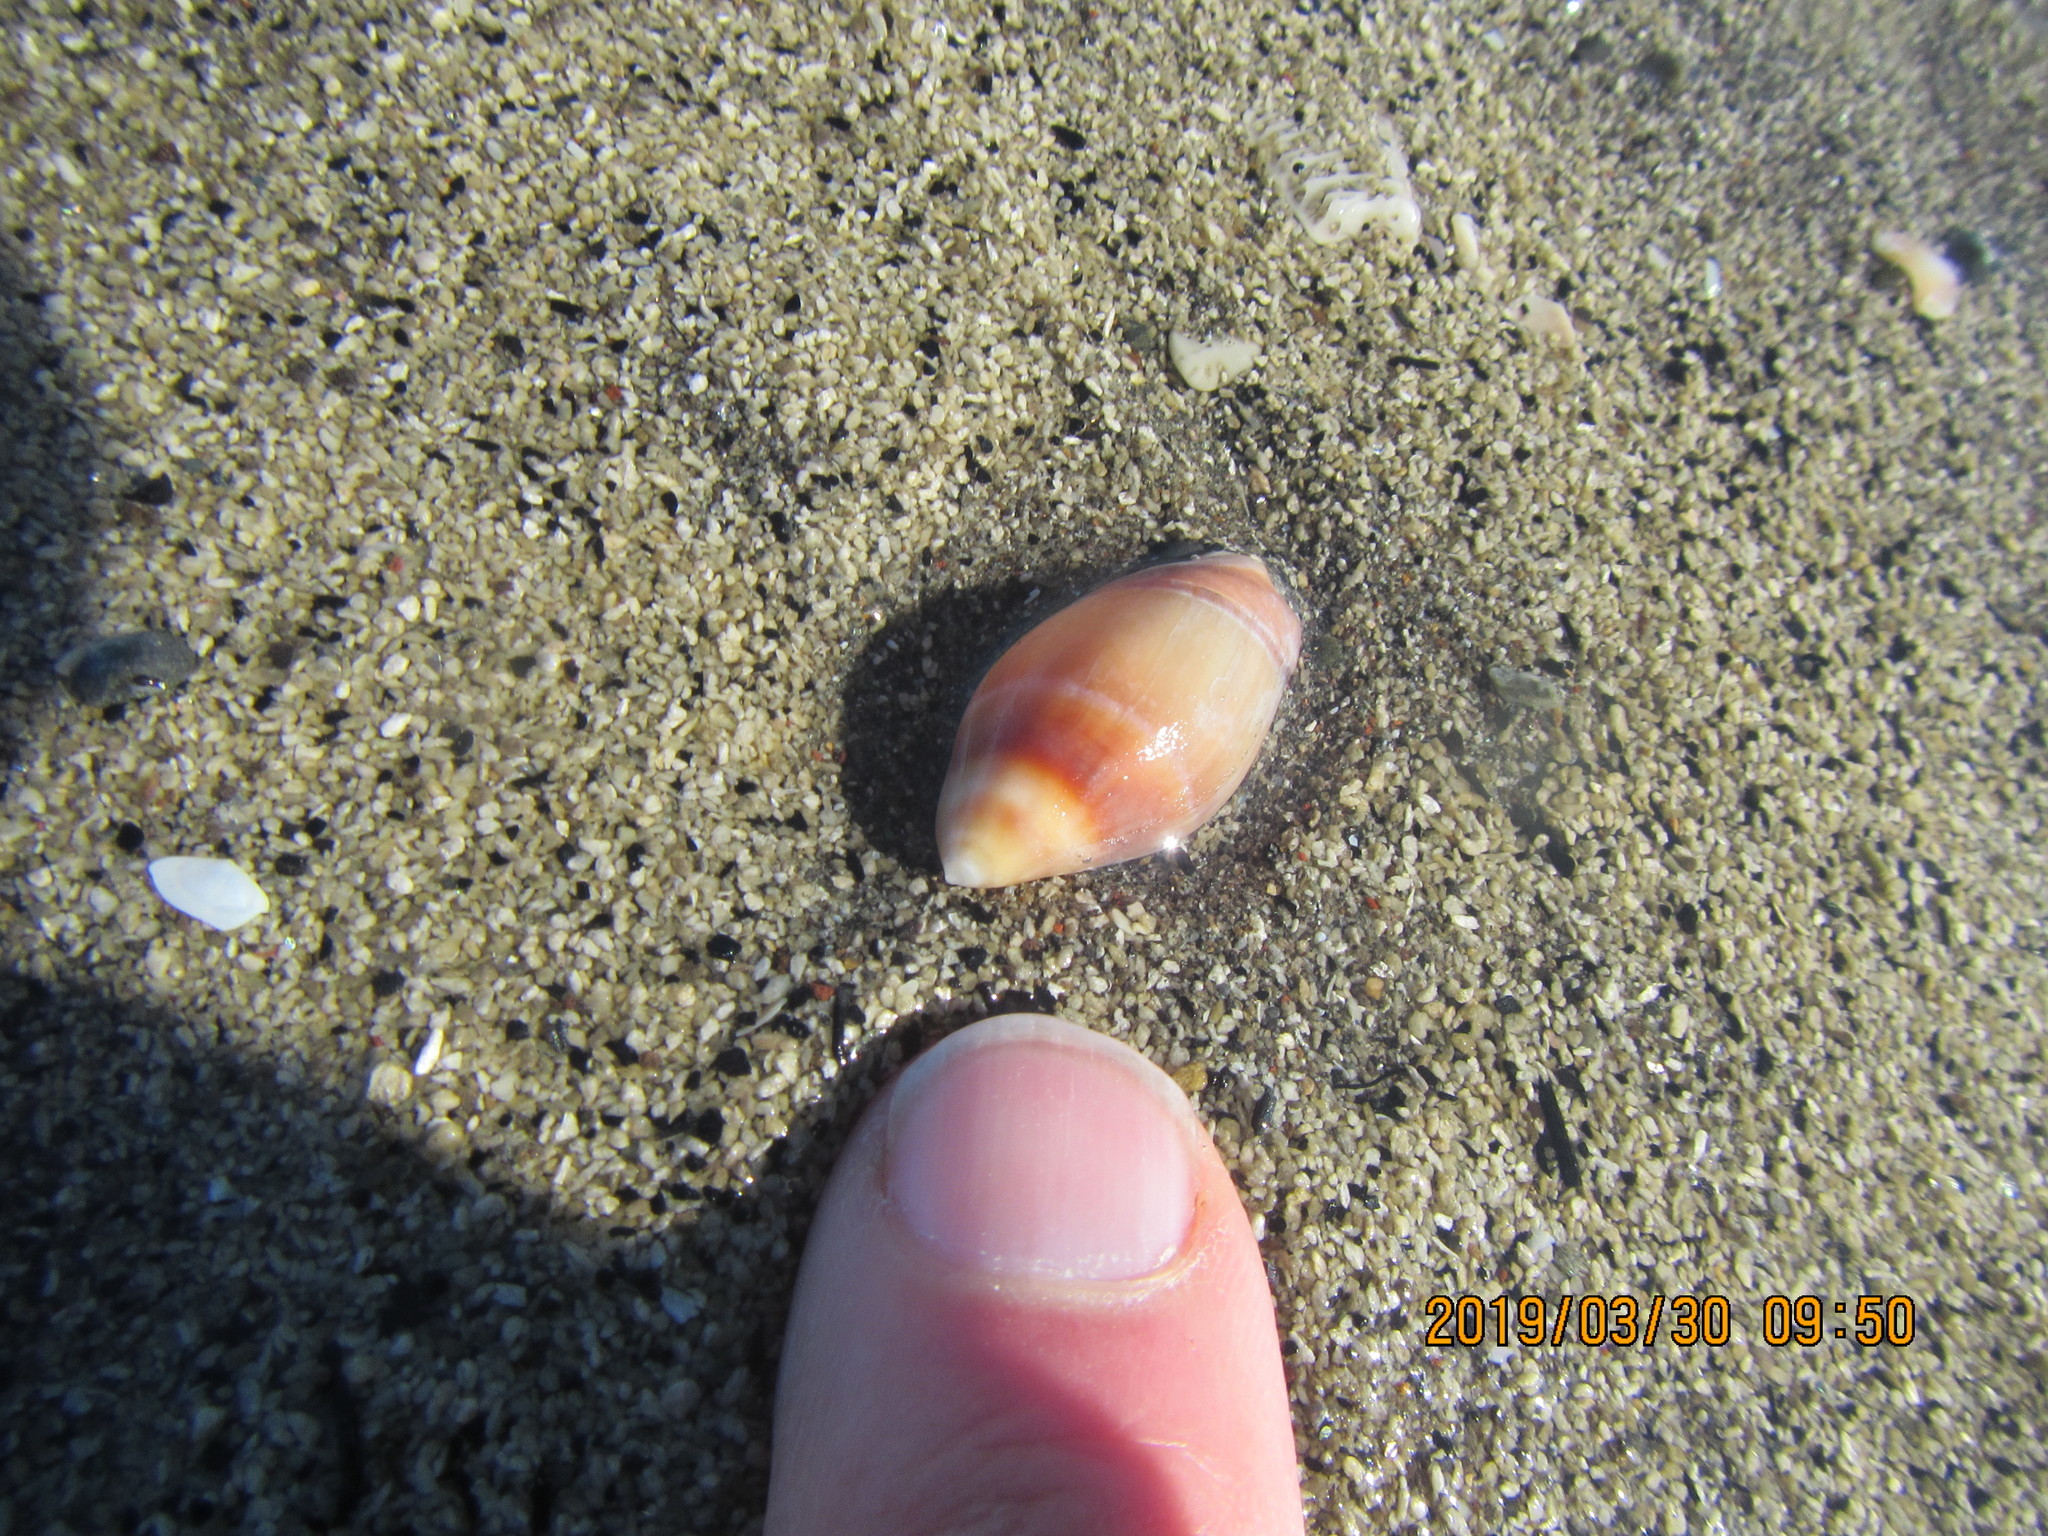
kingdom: Animalia
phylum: Mollusca
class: Gastropoda
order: Neogastropoda
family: Ancillariidae
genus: Amalda
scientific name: Amalda australis
